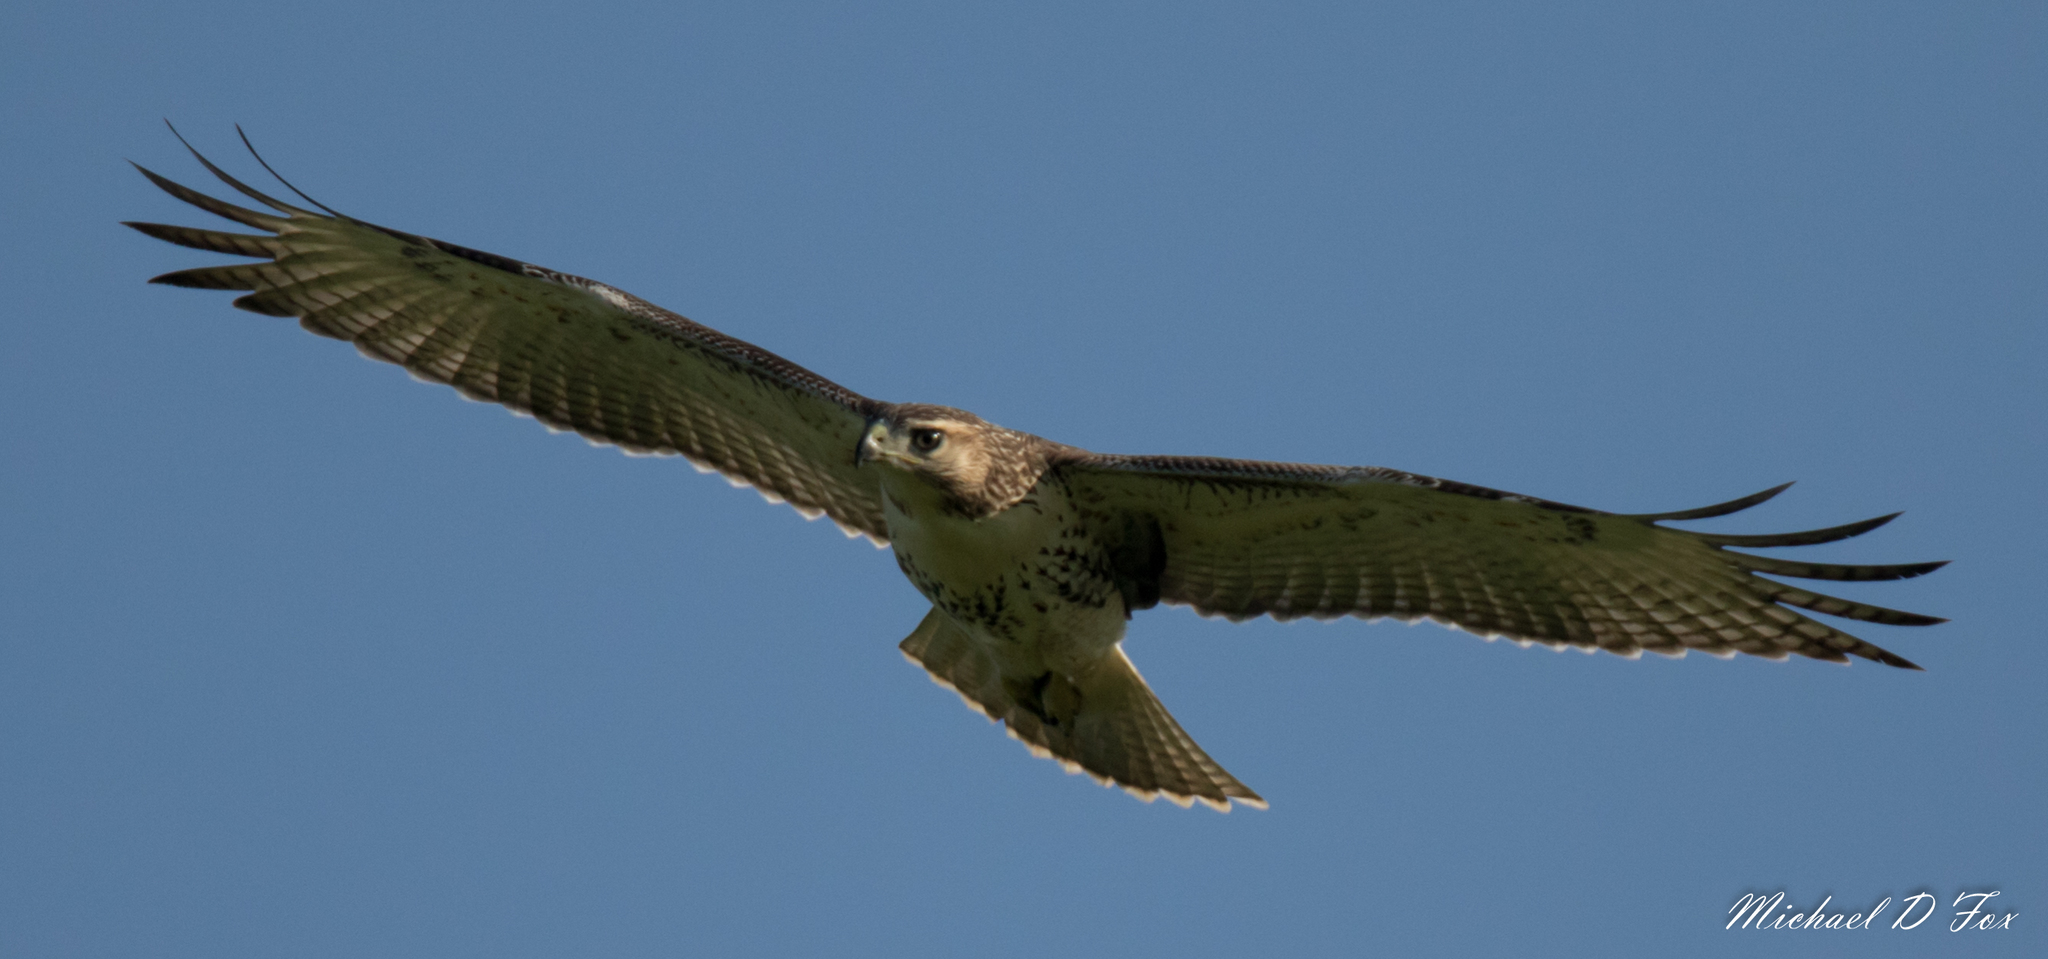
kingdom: Animalia
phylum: Chordata
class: Aves
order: Accipitriformes
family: Accipitridae
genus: Buteo
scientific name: Buteo jamaicensis
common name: Red-tailed hawk
